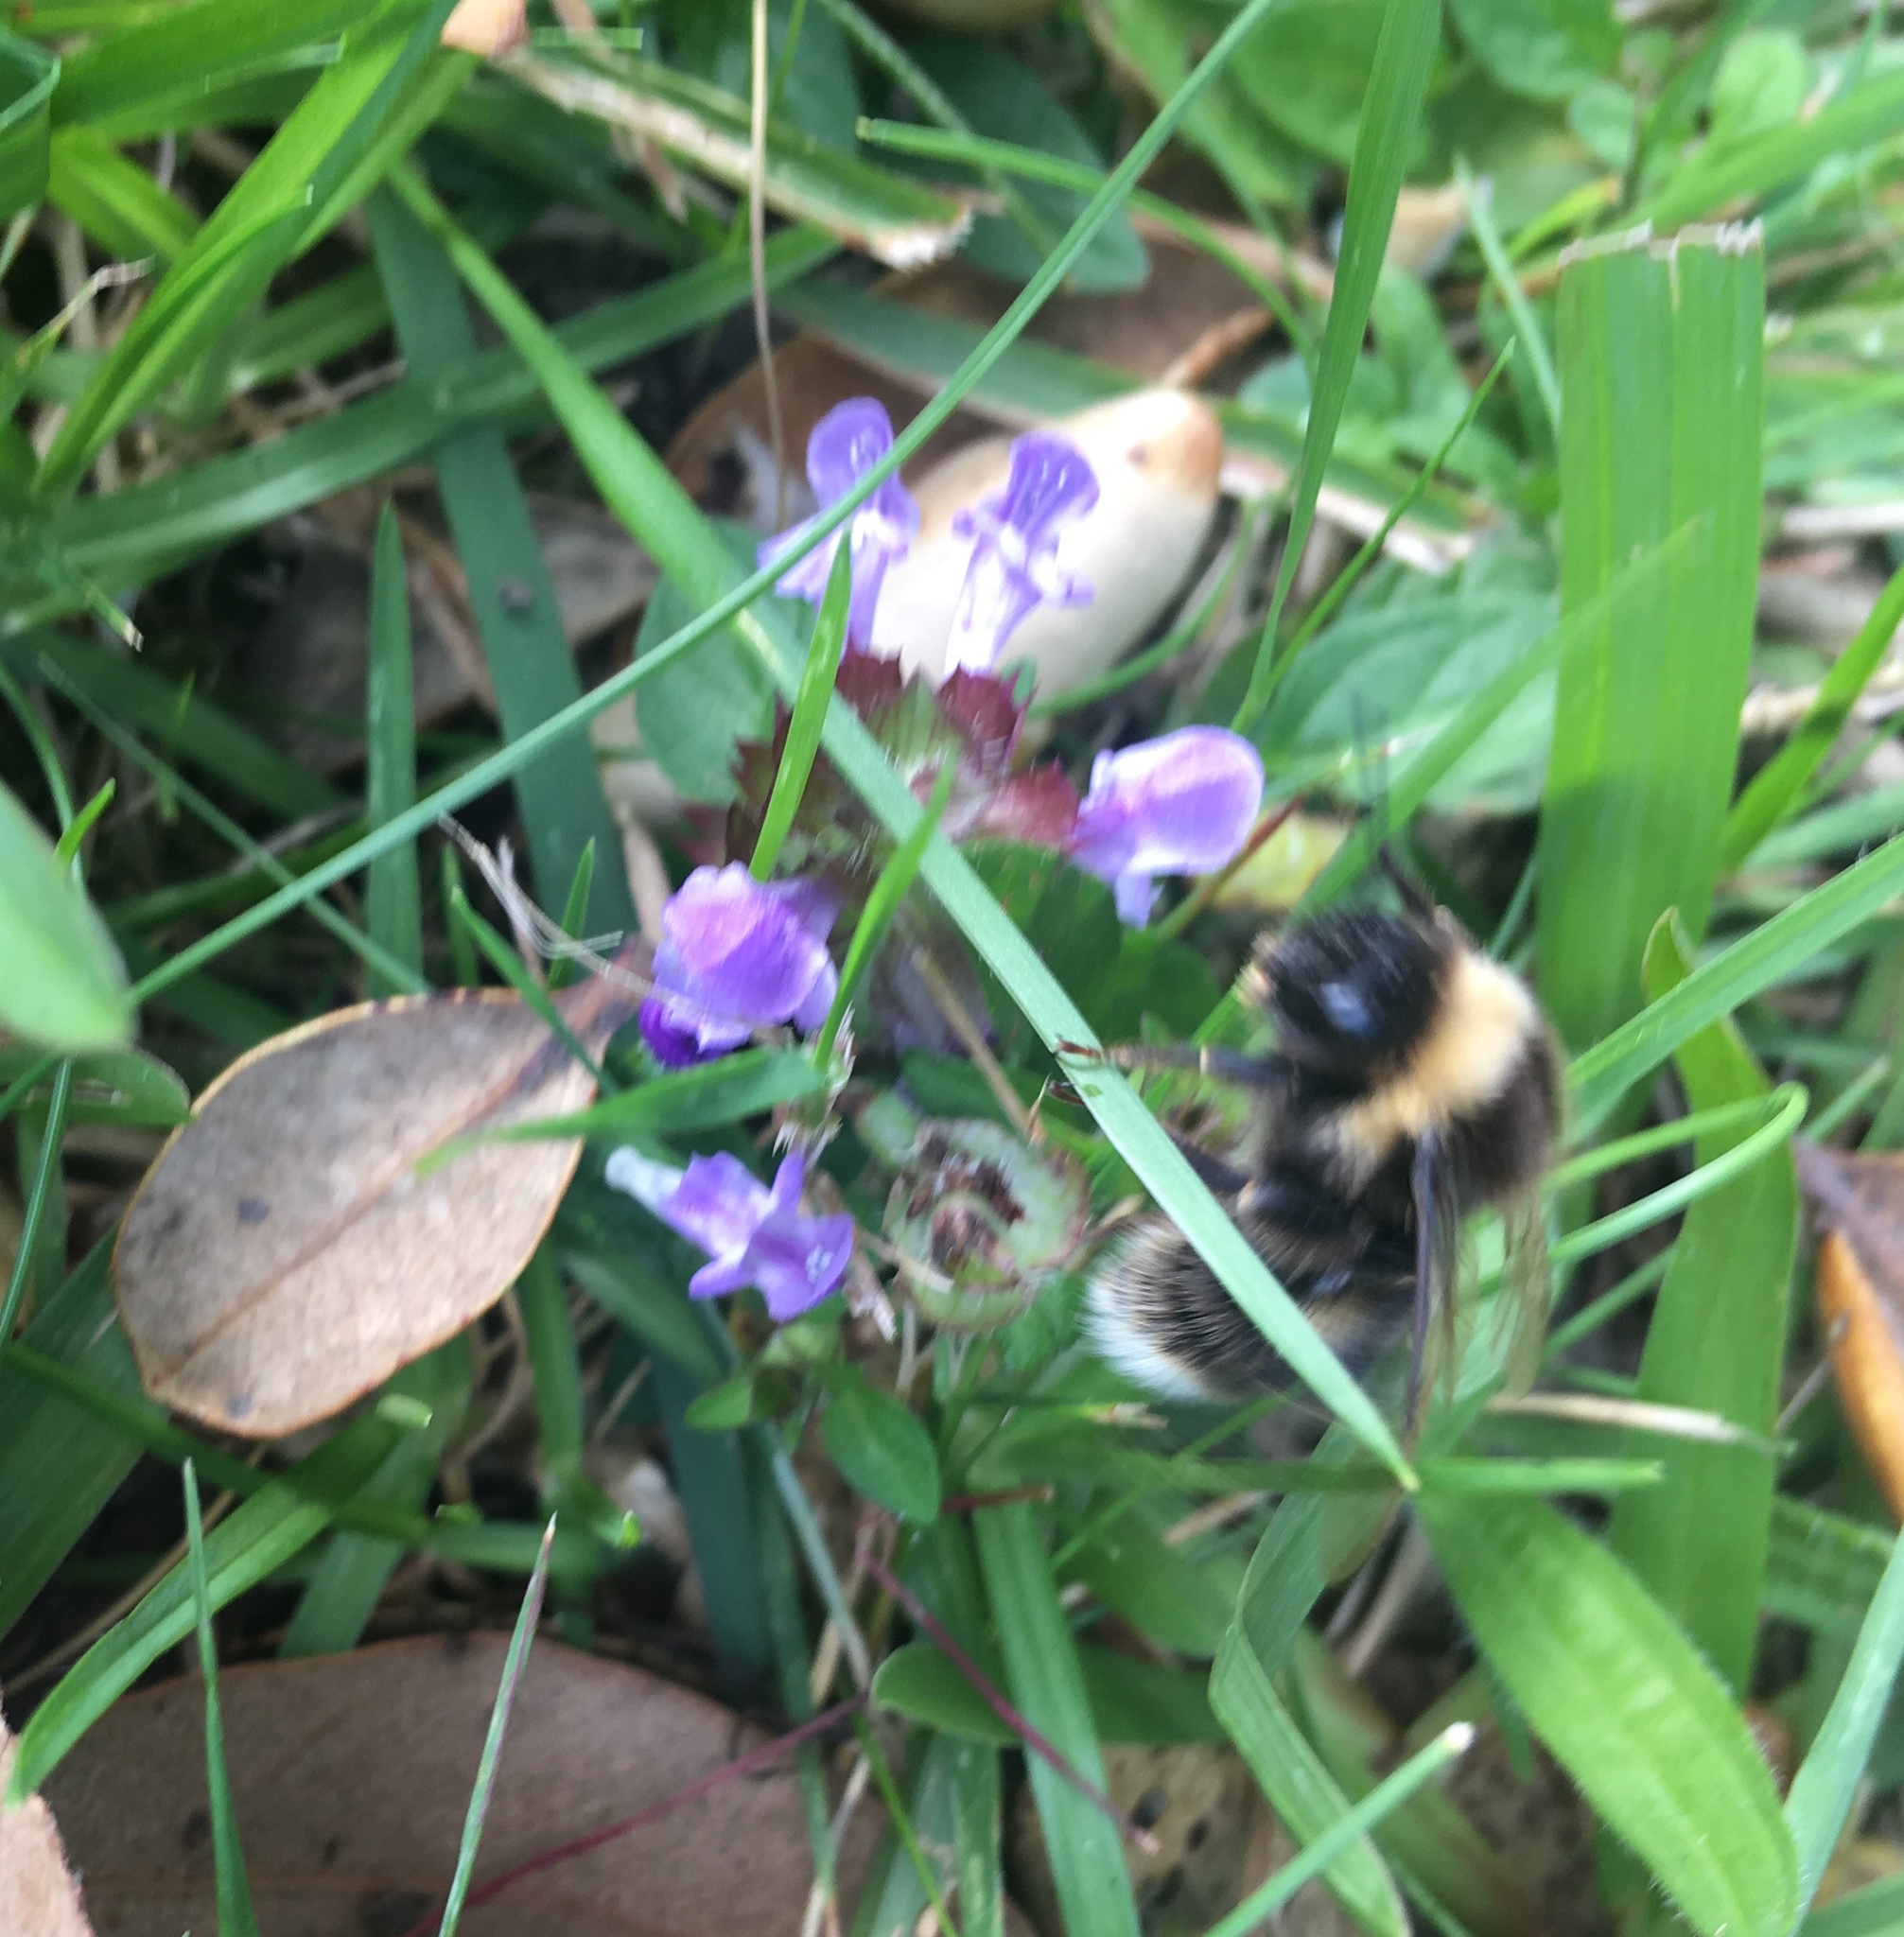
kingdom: Animalia
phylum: Arthropoda
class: Insecta
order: Hymenoptera
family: Apidae
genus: Bombus
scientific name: Bombus terrestris
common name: Buff-tailed bumblebee
